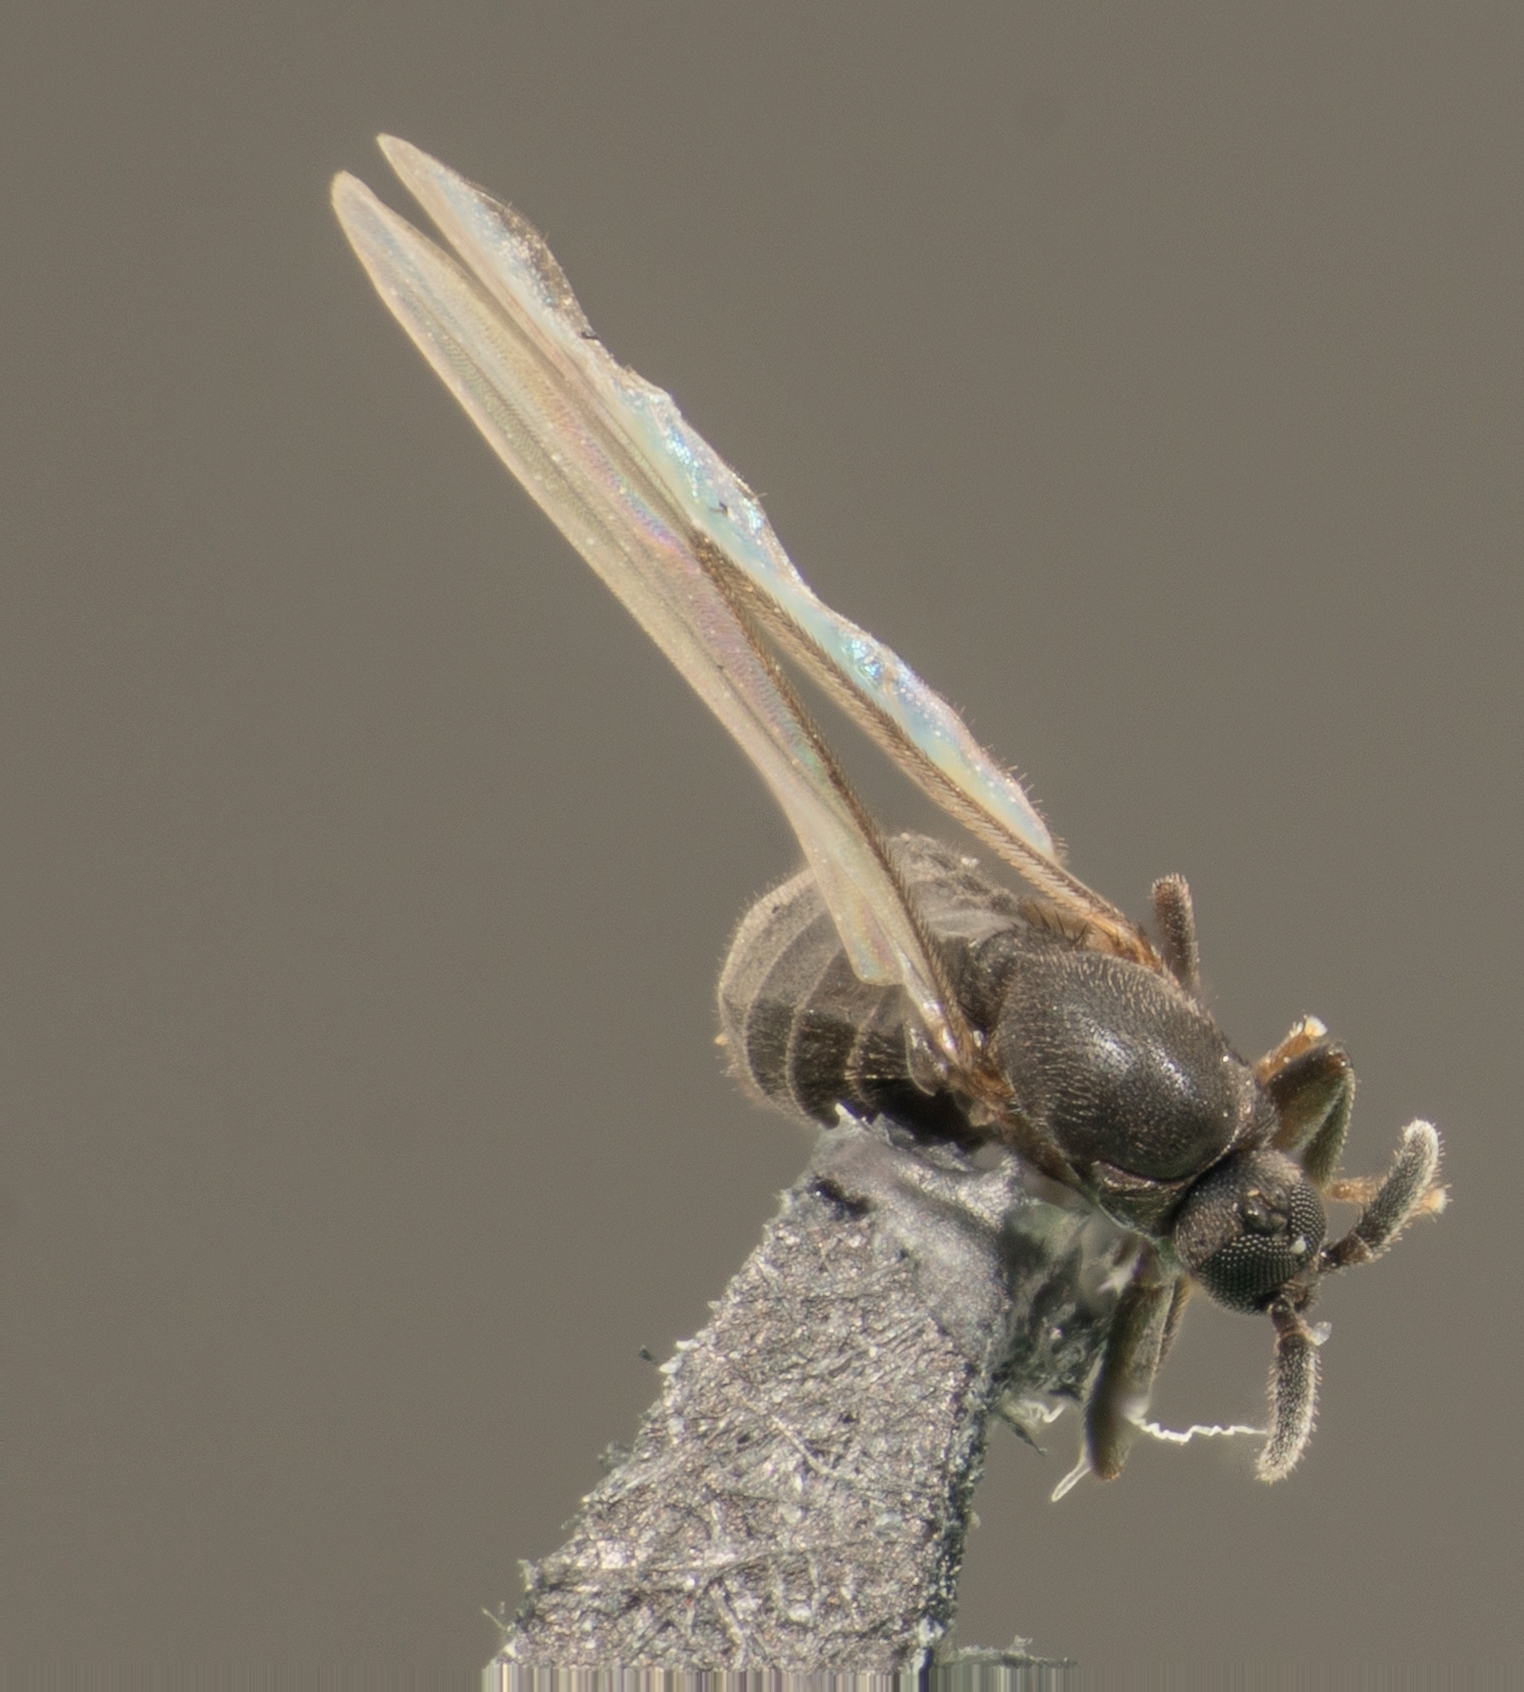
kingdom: Animalia
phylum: Arthropoda
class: Insecta
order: Diptera
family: Scatopsidae
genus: Coboldia
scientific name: Coboldia fuscipes
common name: Fly
